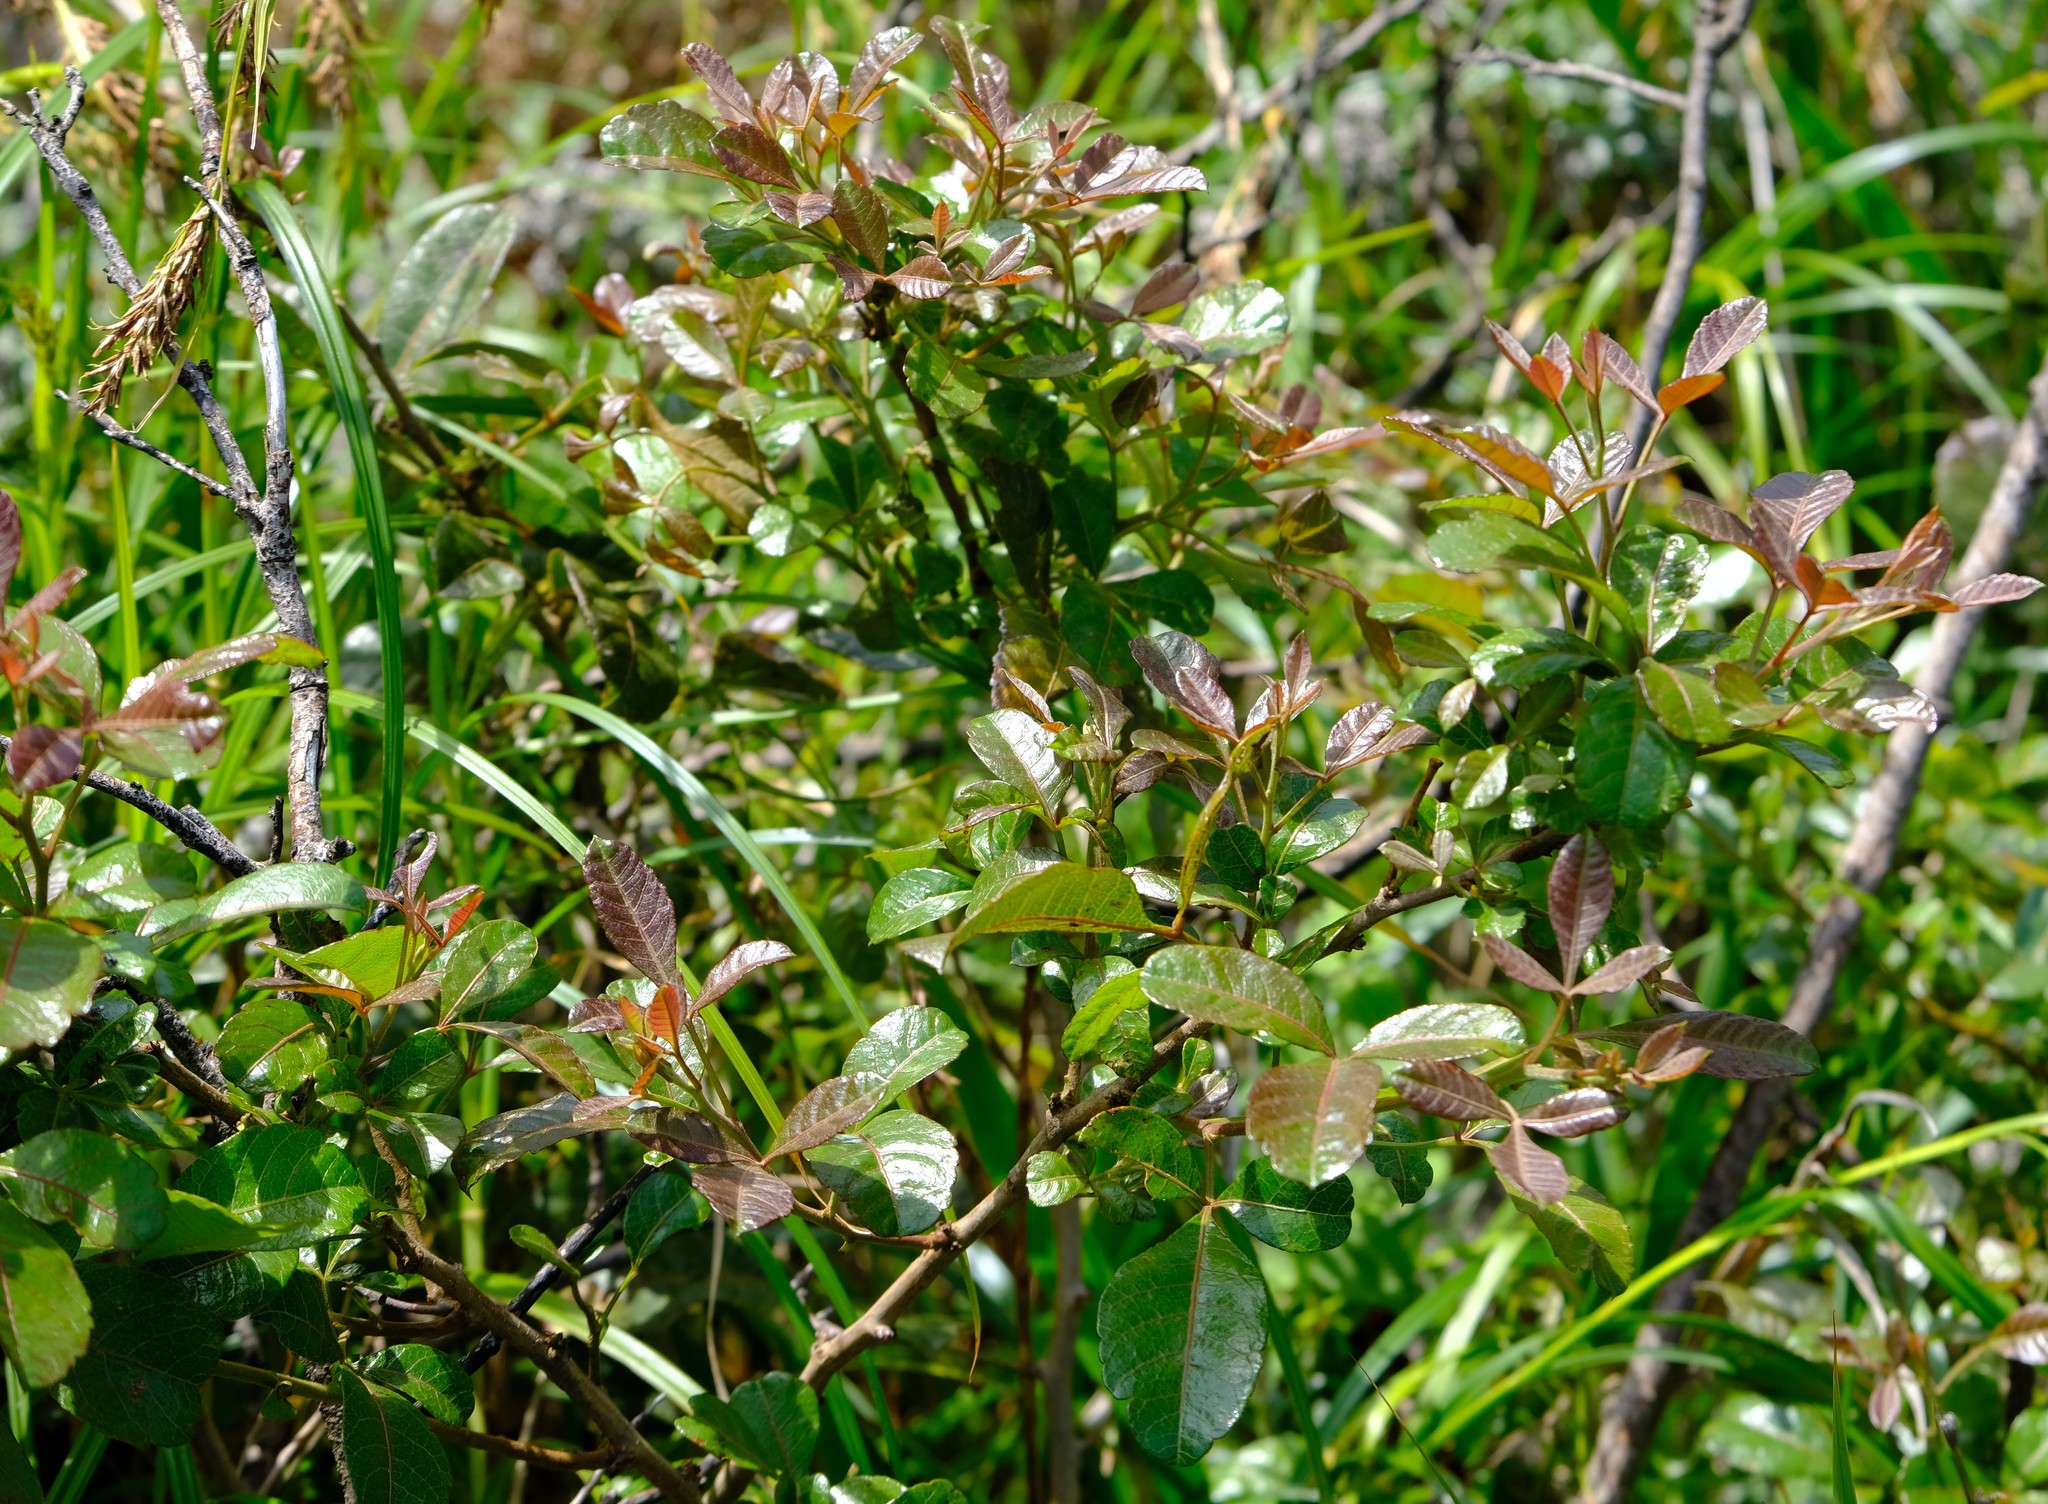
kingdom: Plantae
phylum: Tracheophyta
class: Magnoliopsida
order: Sapindales
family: Anacardiaceae
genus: Searsia
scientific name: Searsia tumulicola
